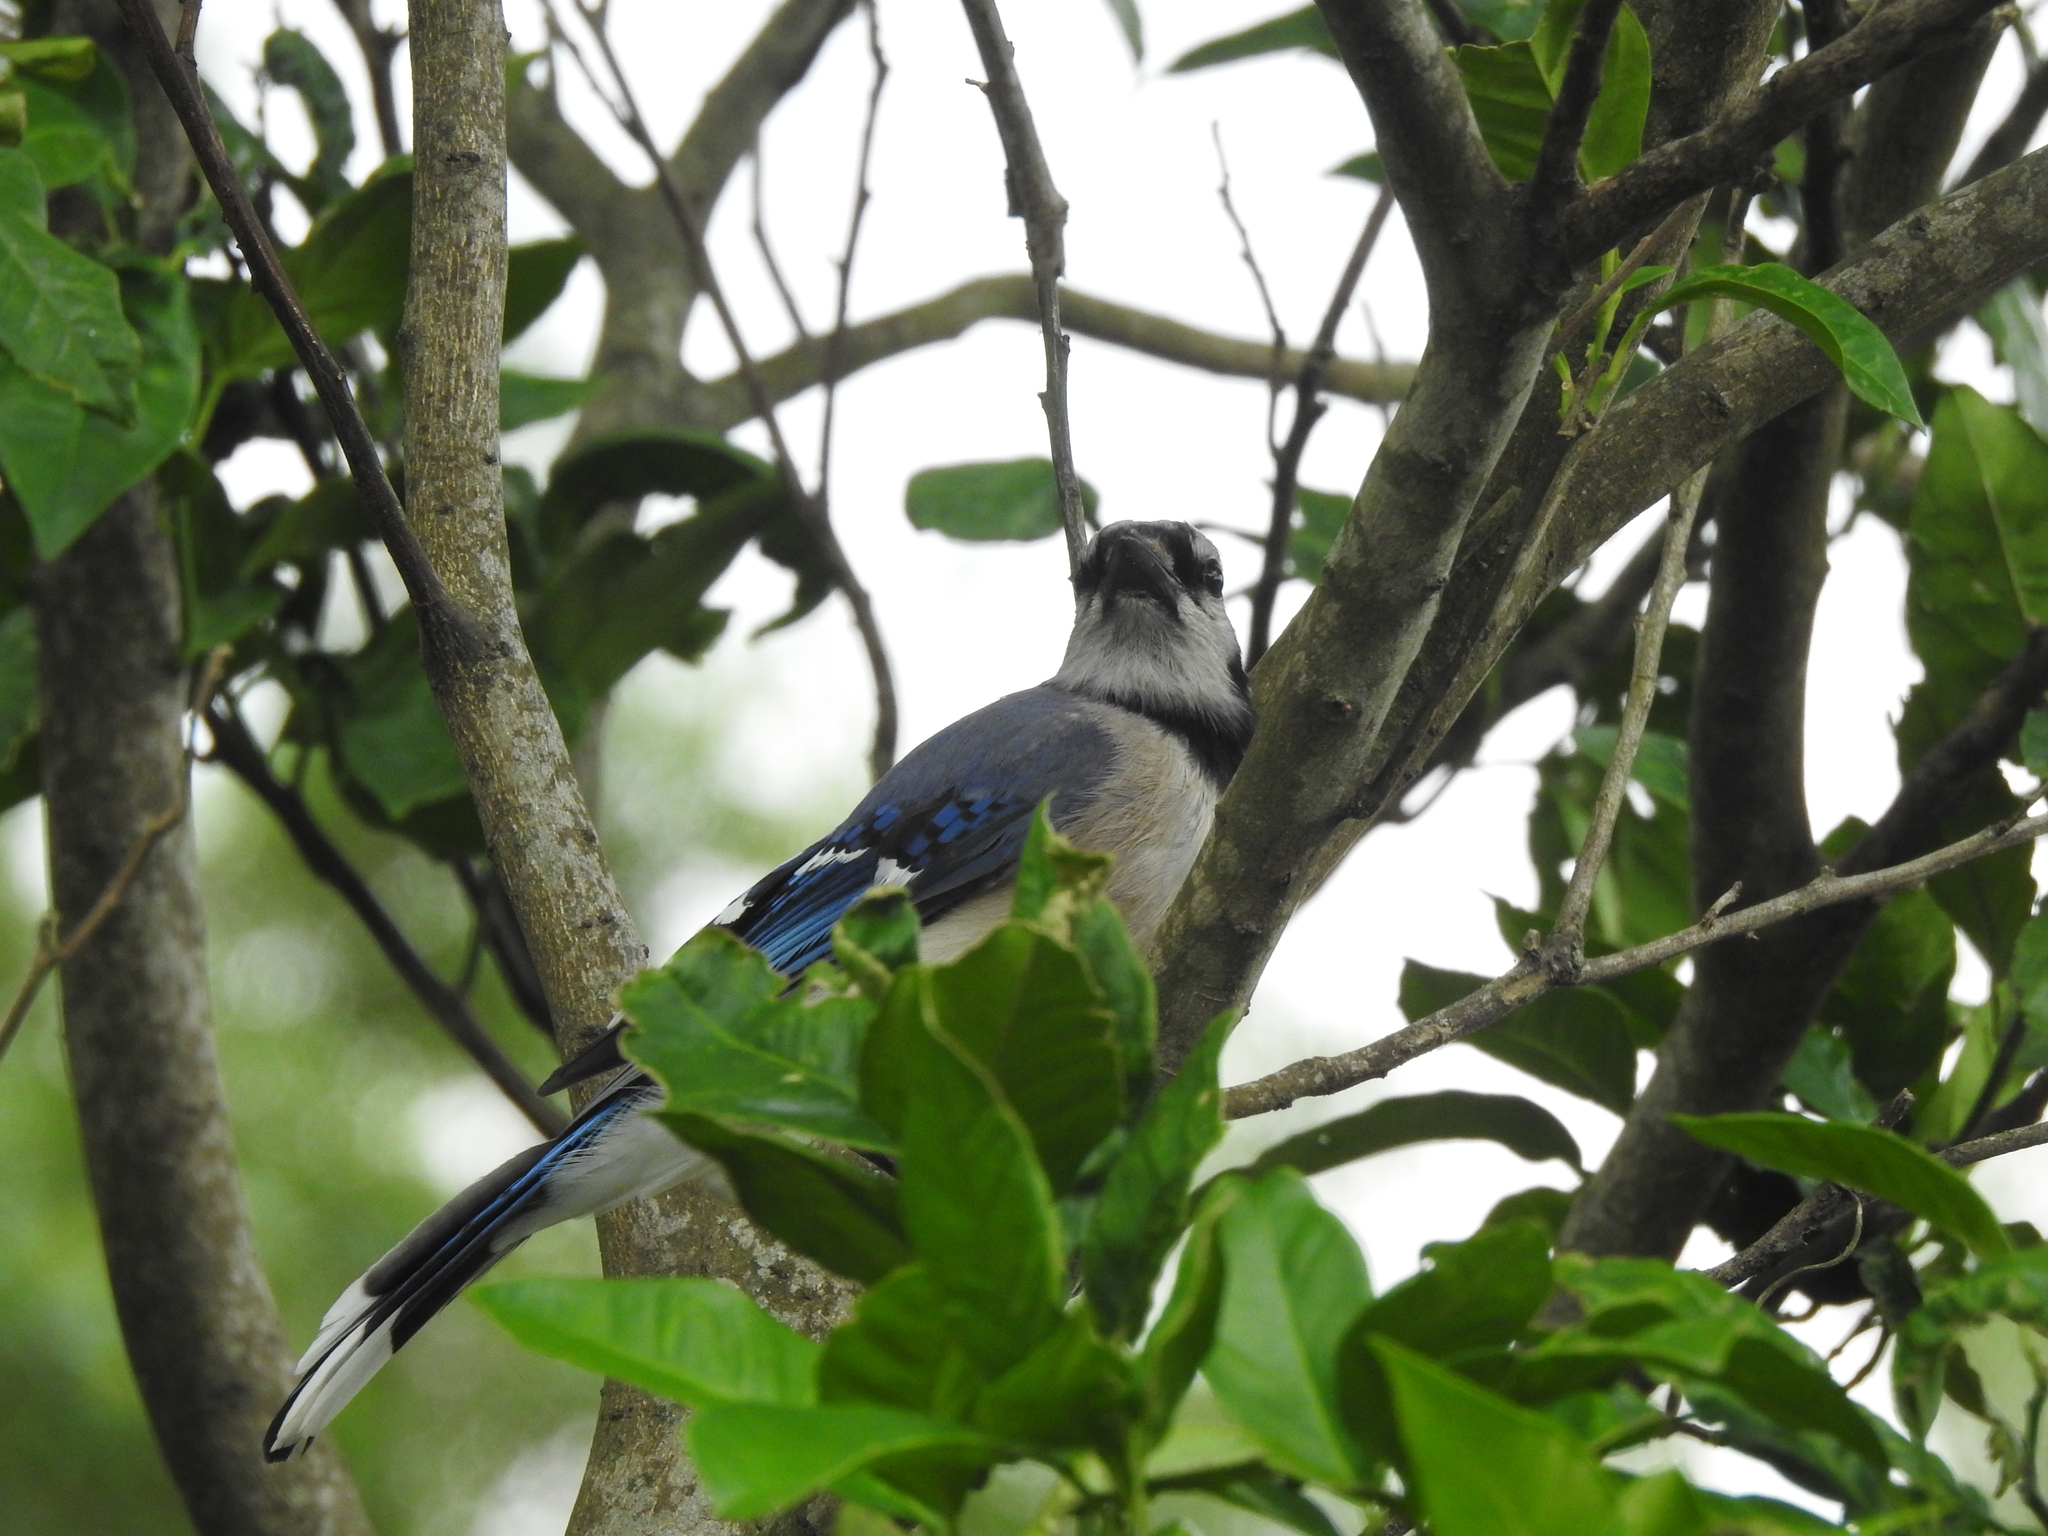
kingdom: Animalia
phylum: Chordata
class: Aves
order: Passeriformes
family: Corvidae
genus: Cyanocitta
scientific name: Cyanocitta cristata
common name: Blue jay
